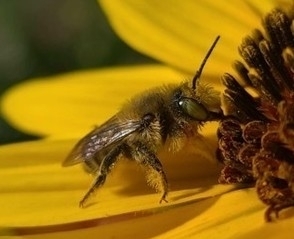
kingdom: Animalia
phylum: Arthropoda
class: Insecta
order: Hymenoptera
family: Megachilidae
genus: Megachile
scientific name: Megachile perihirta
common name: Western leafcutter
